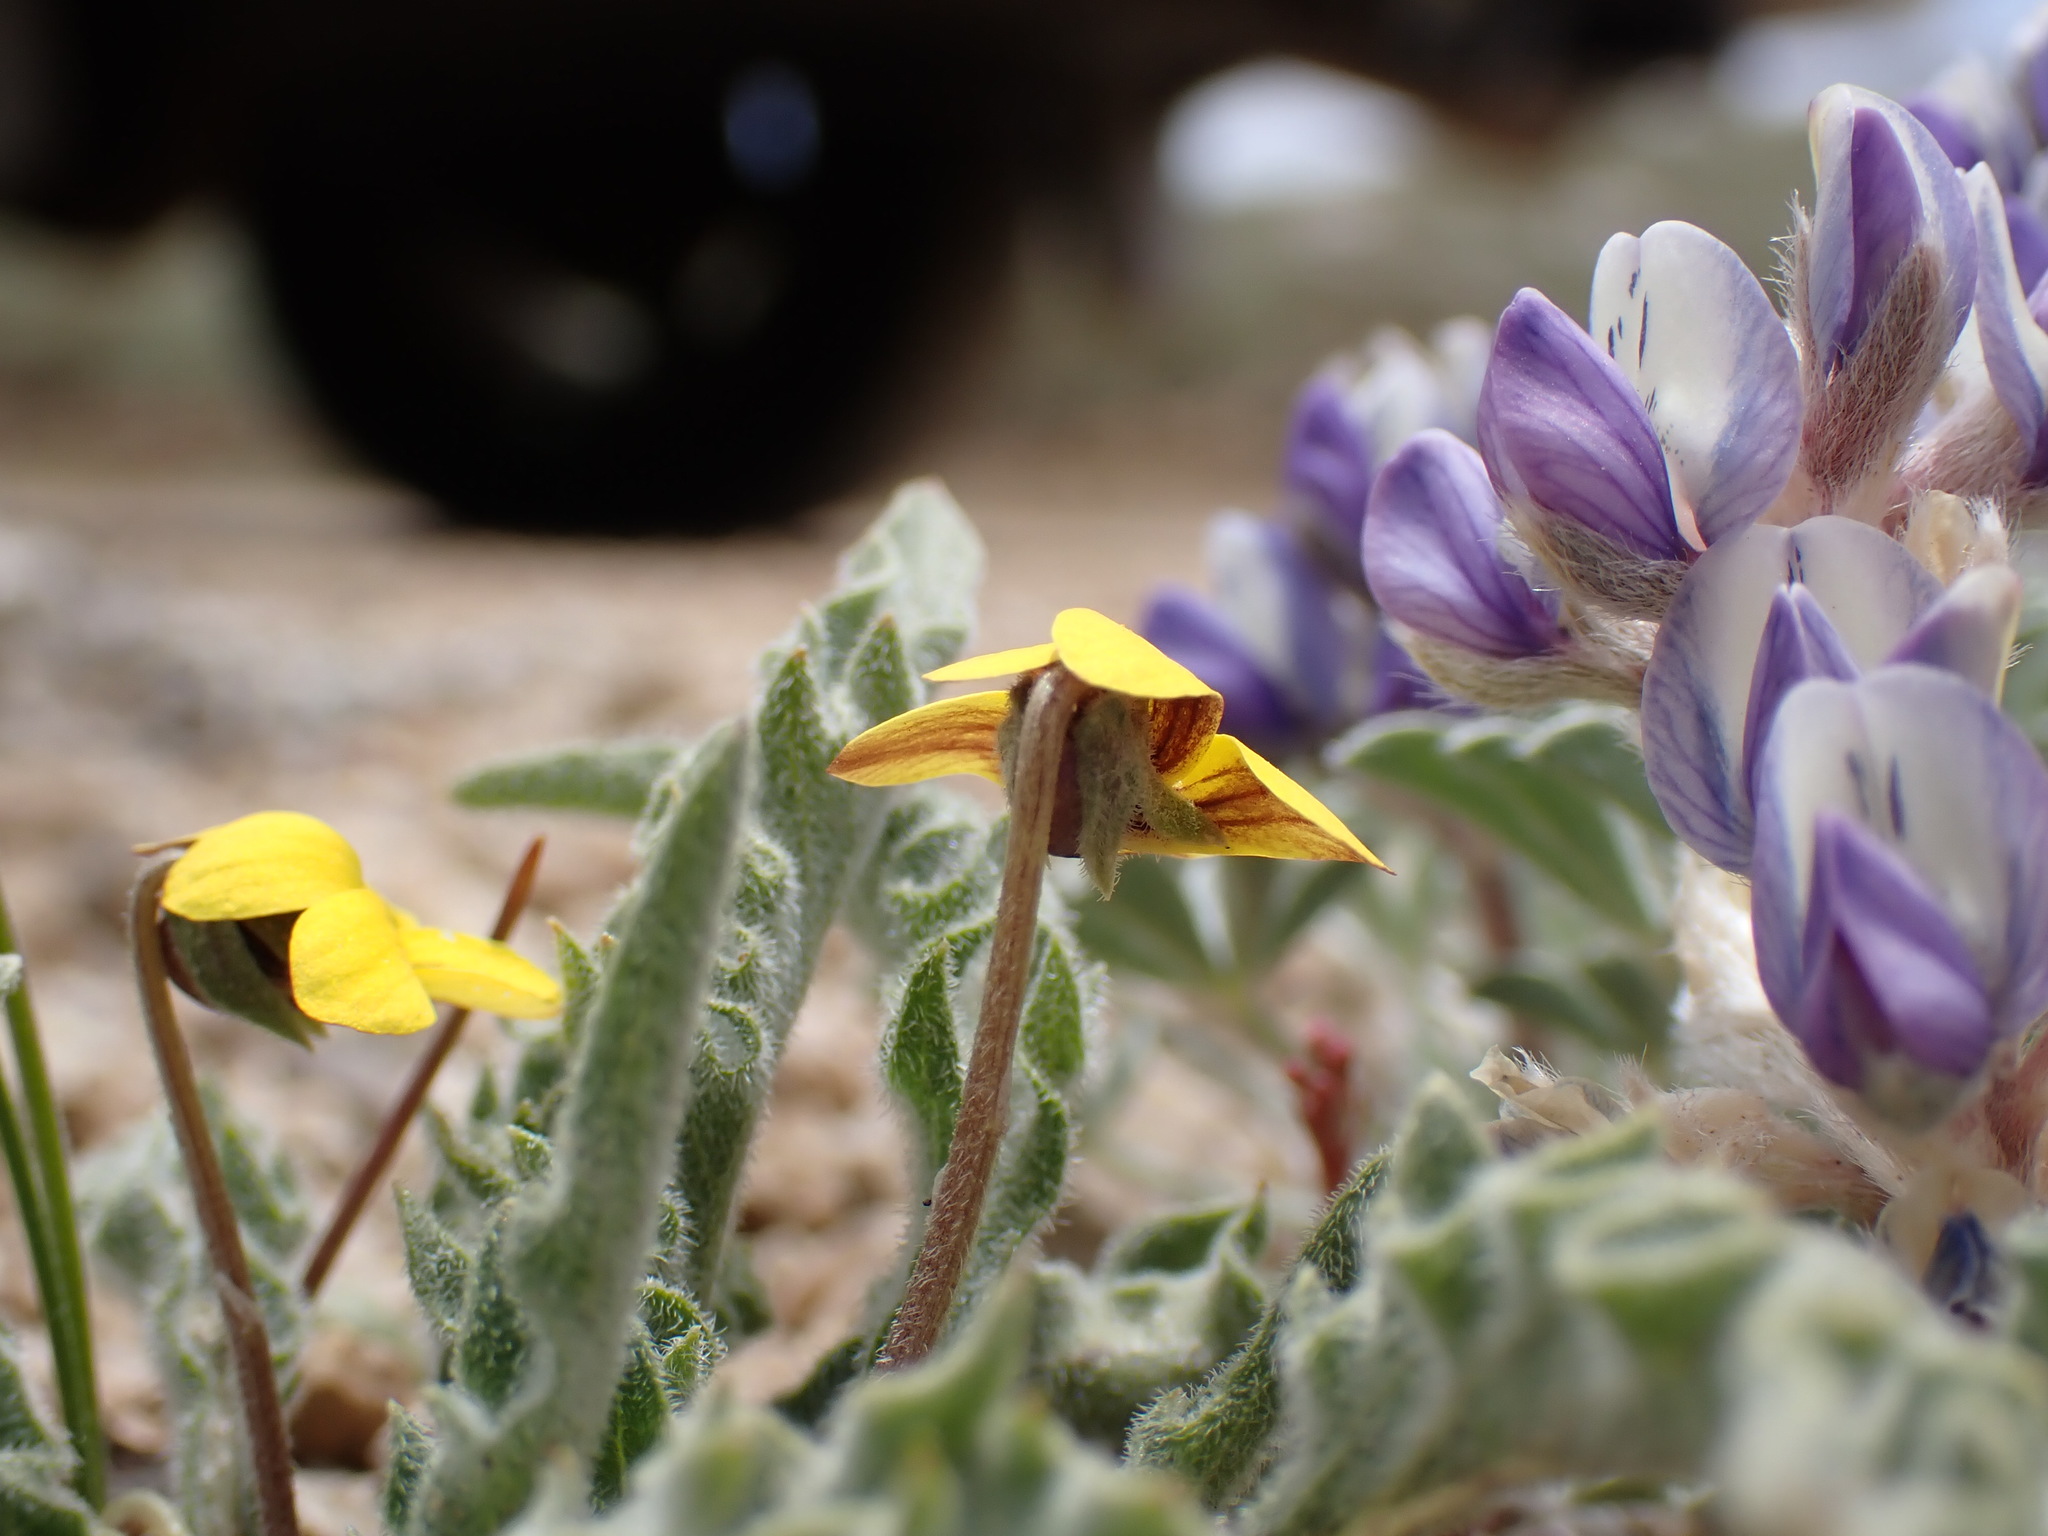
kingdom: Plantae
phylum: Tracheophyta
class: Magnoliopsida
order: Malpighiales
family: Violaceae
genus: Viola
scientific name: Viola pinetorum
